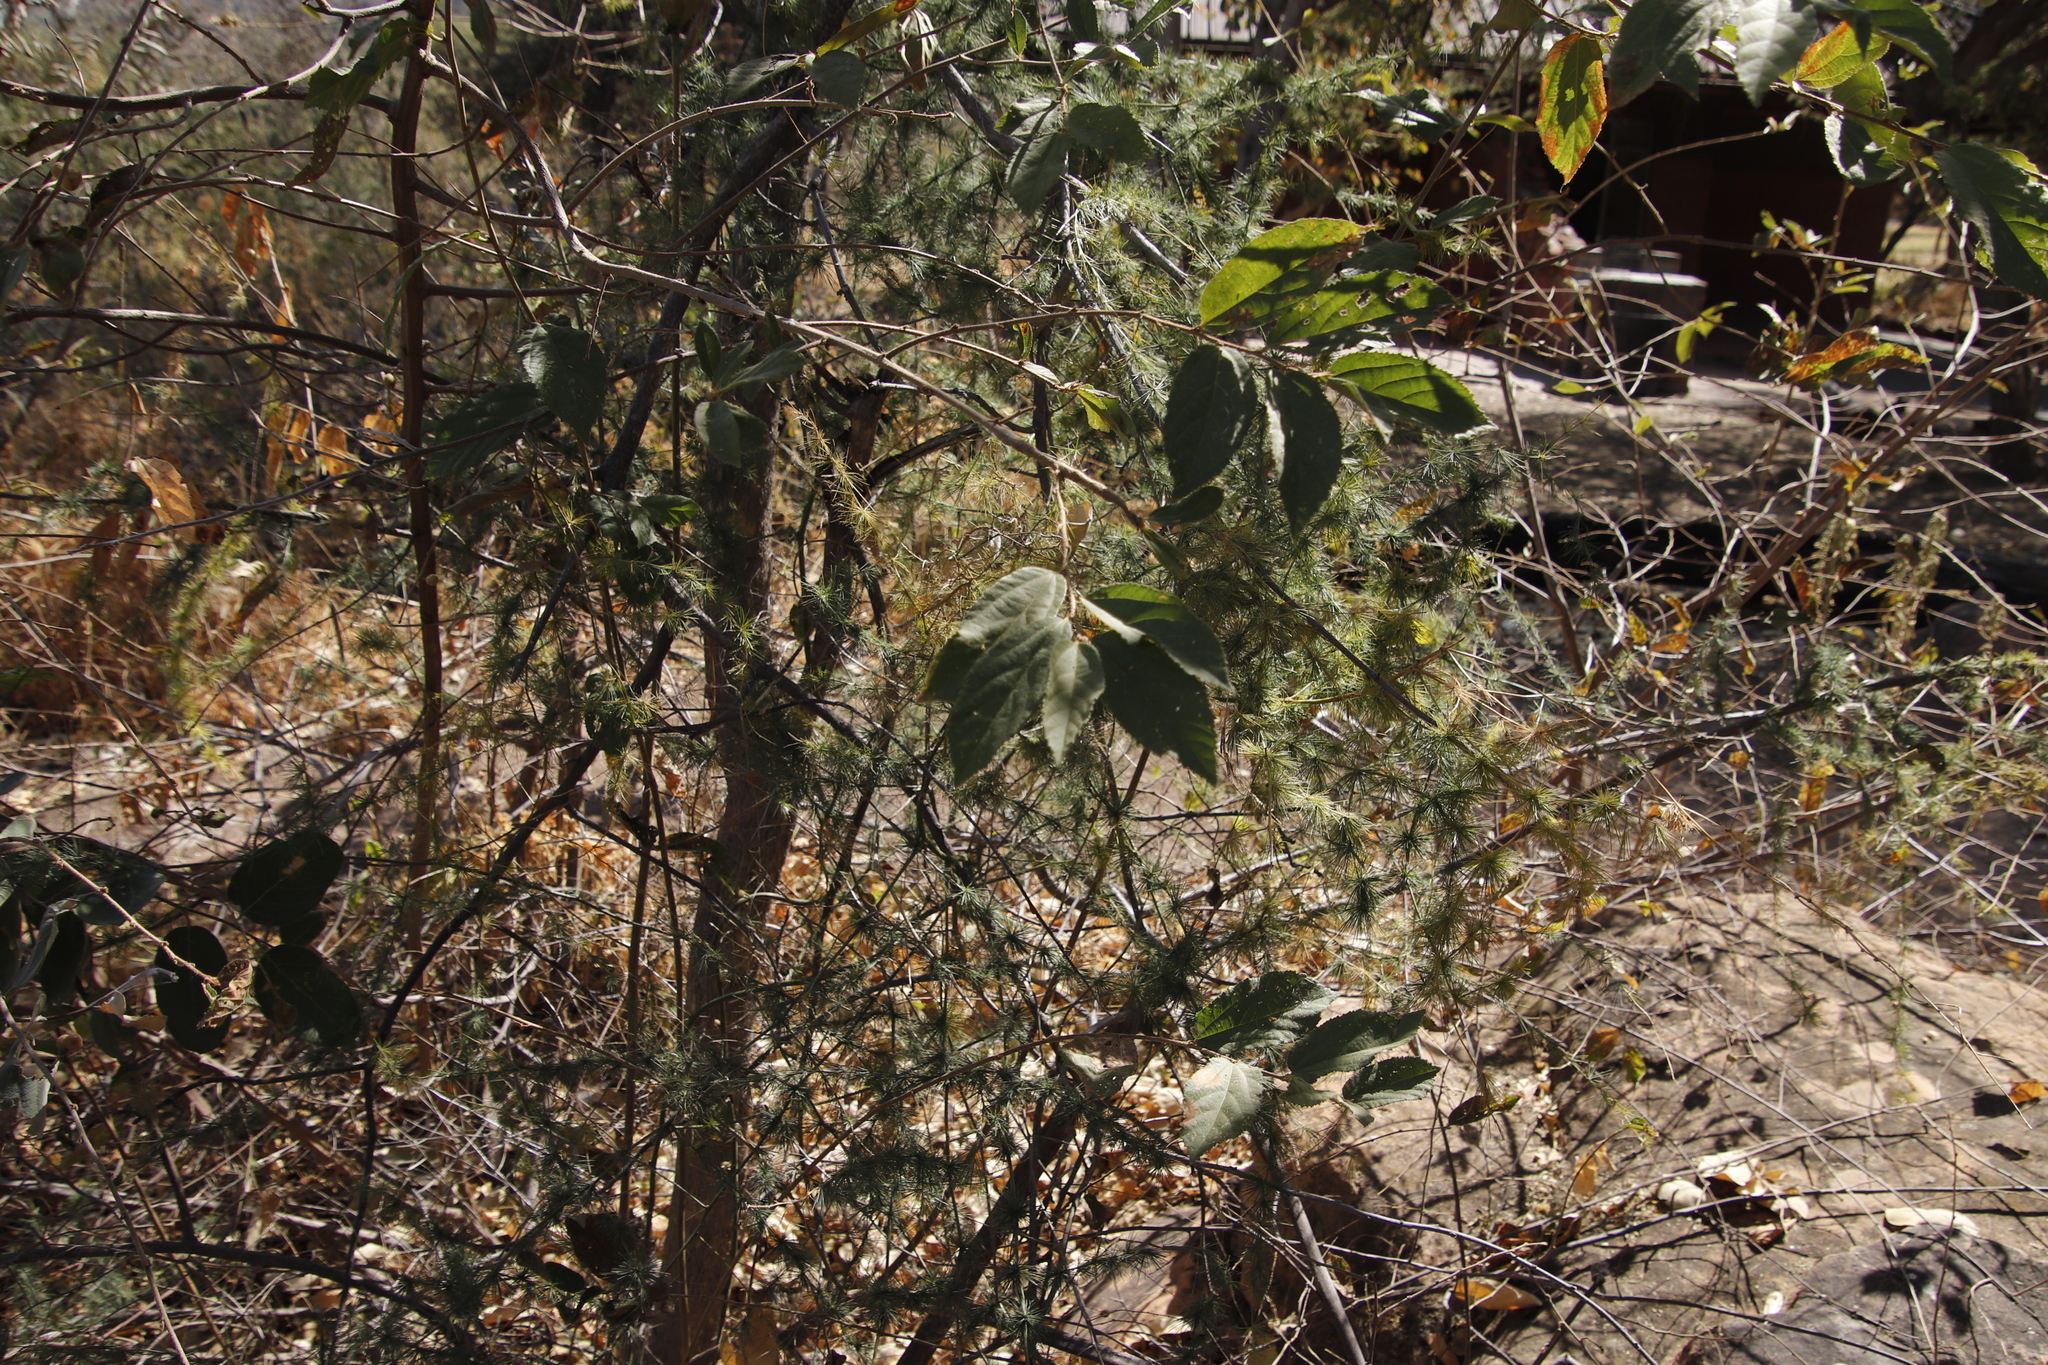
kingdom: Plantae
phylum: Tracheophyta
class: Magnoliopsida
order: Malvales
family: Malvaceae
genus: Grewia
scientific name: Grewia flavescens
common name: Sandpaper raisin
